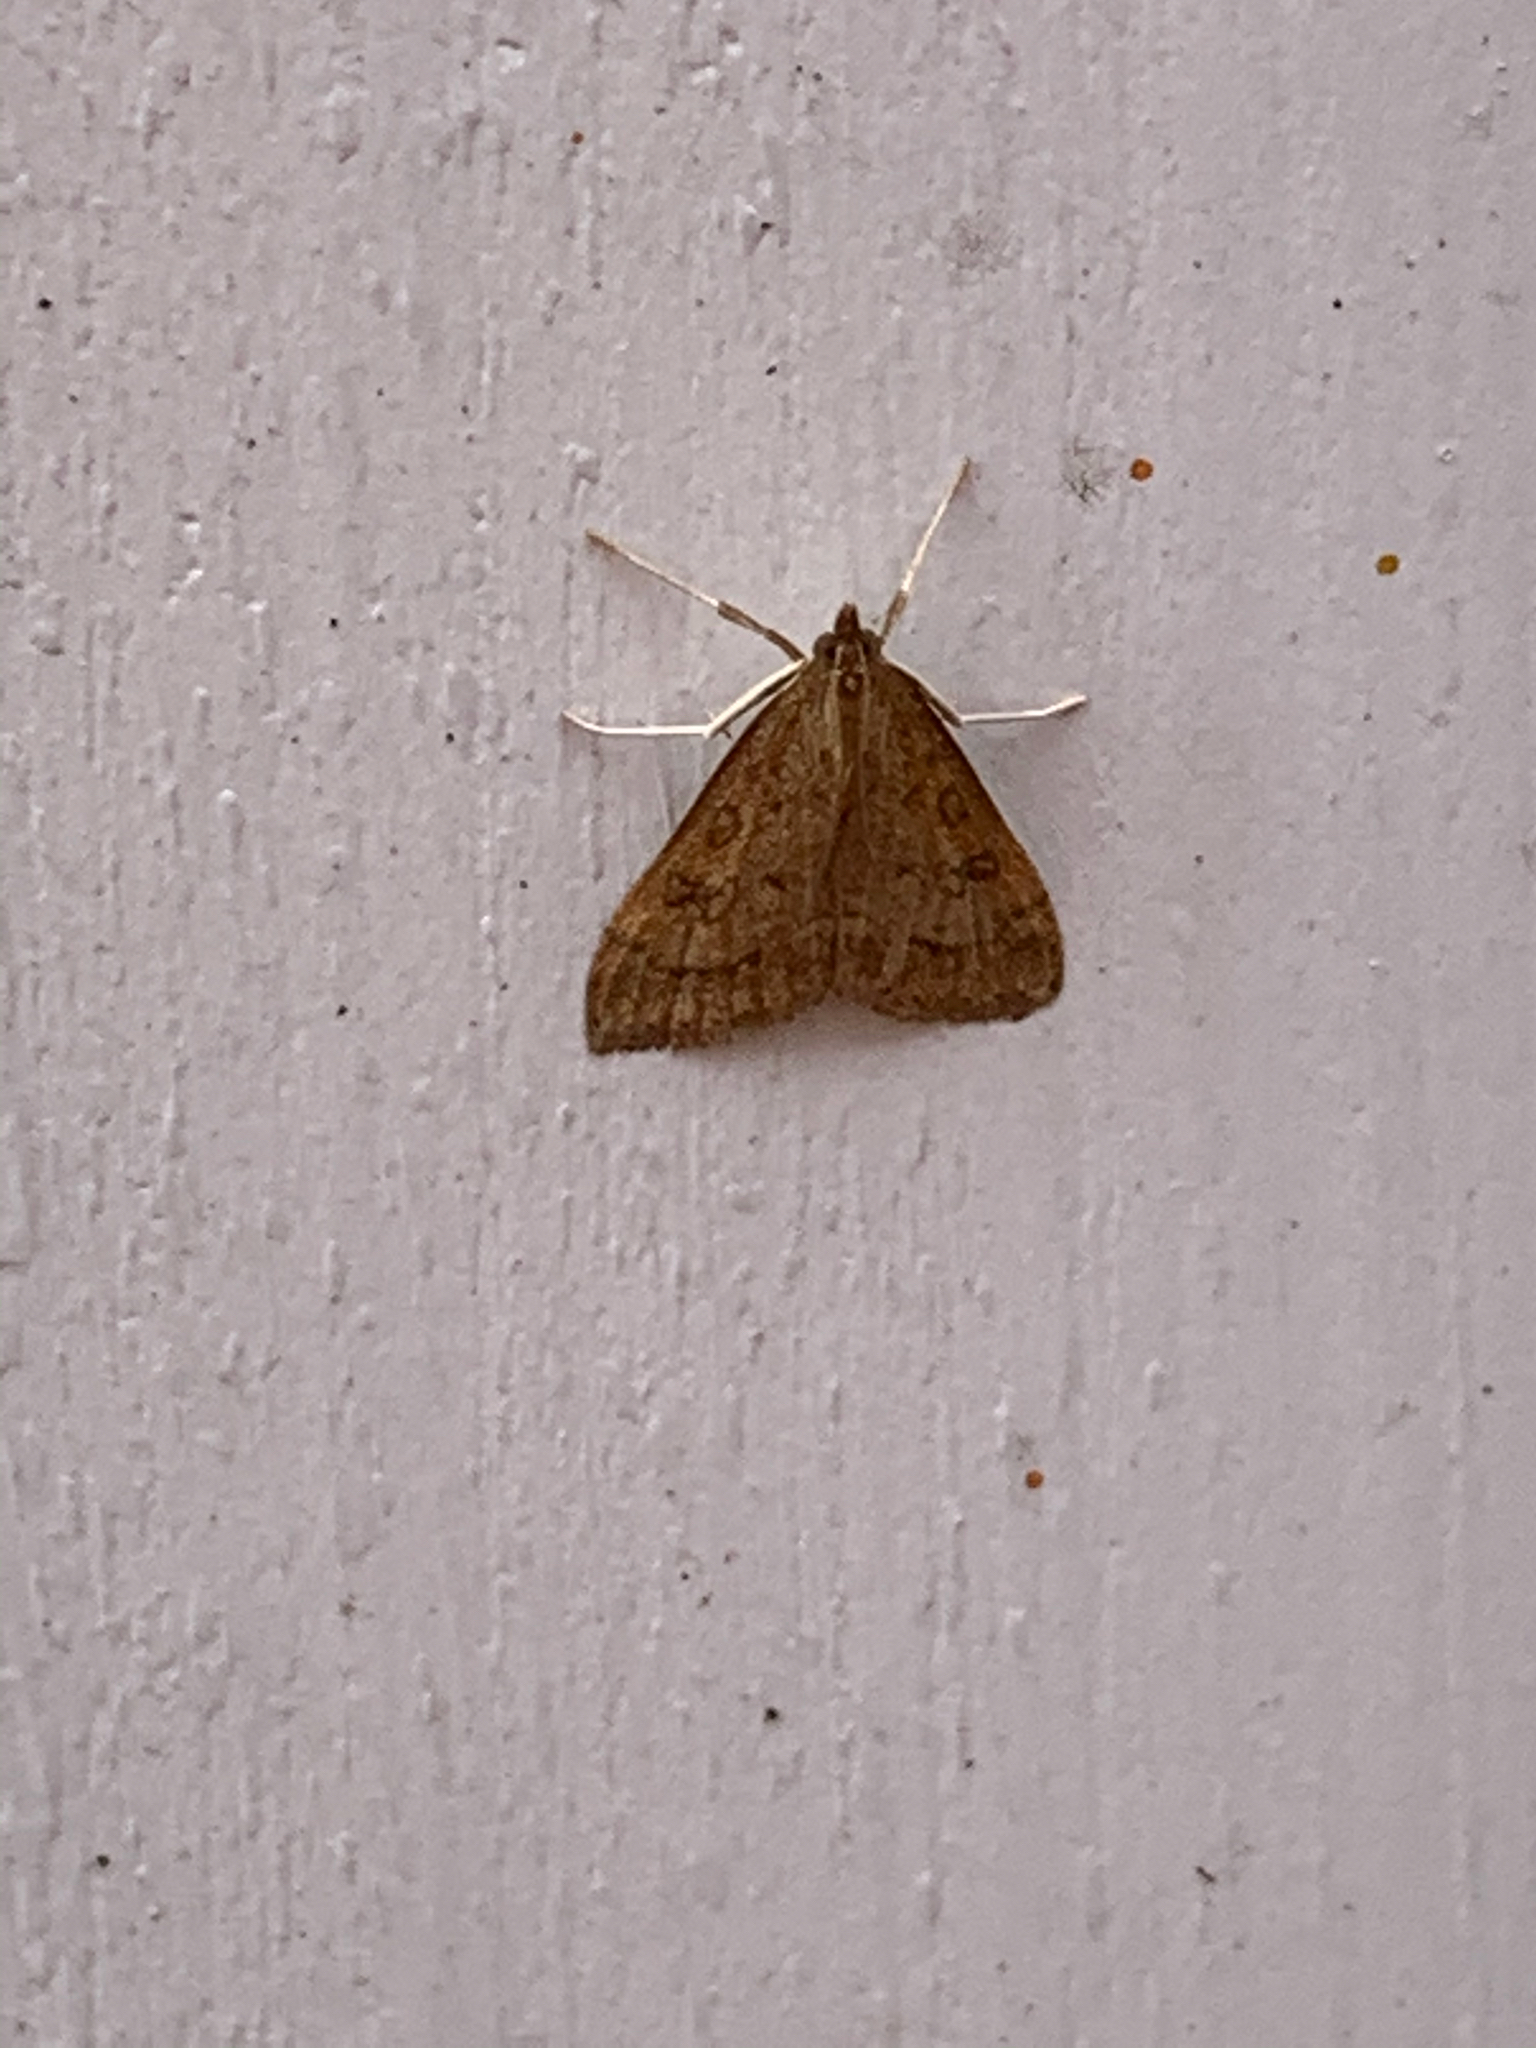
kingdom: Animalia
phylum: Arthropoda
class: Insecta
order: Lepidoptera
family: Crambidae
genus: Udea
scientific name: Udea rubigalis
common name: Celery leaftier moth
